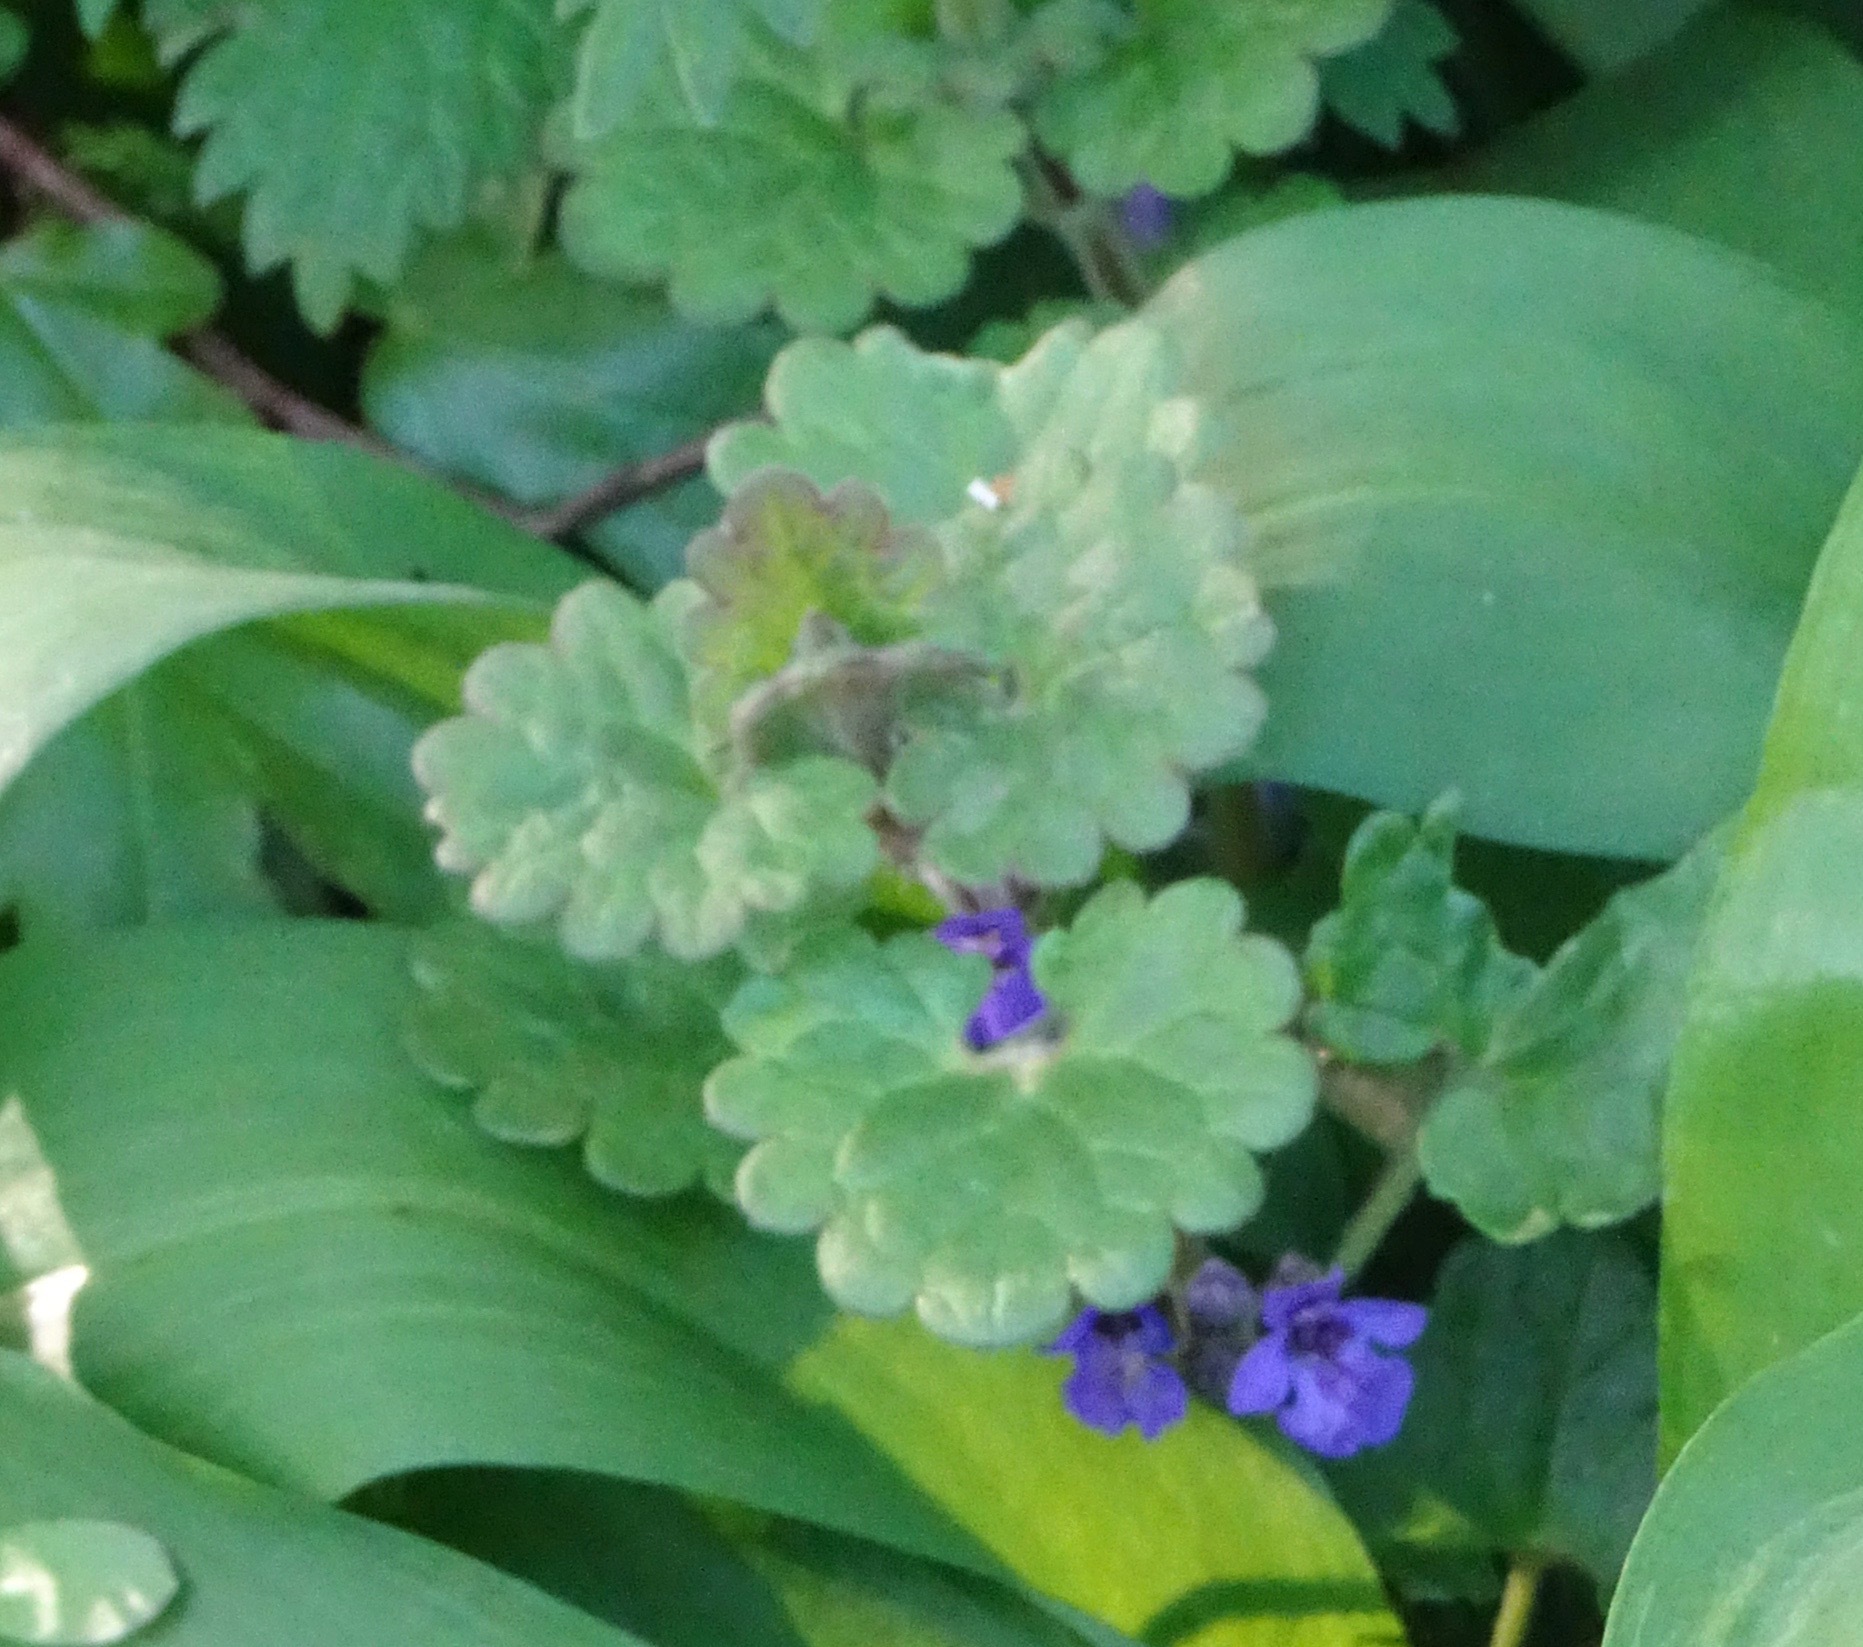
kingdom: Plantae
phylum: Tracheophyta
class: Magnoliopsida
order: Lamiales
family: Lamiaceae
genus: Glechoma
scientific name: Glechoma hederacea
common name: Ground ivy
